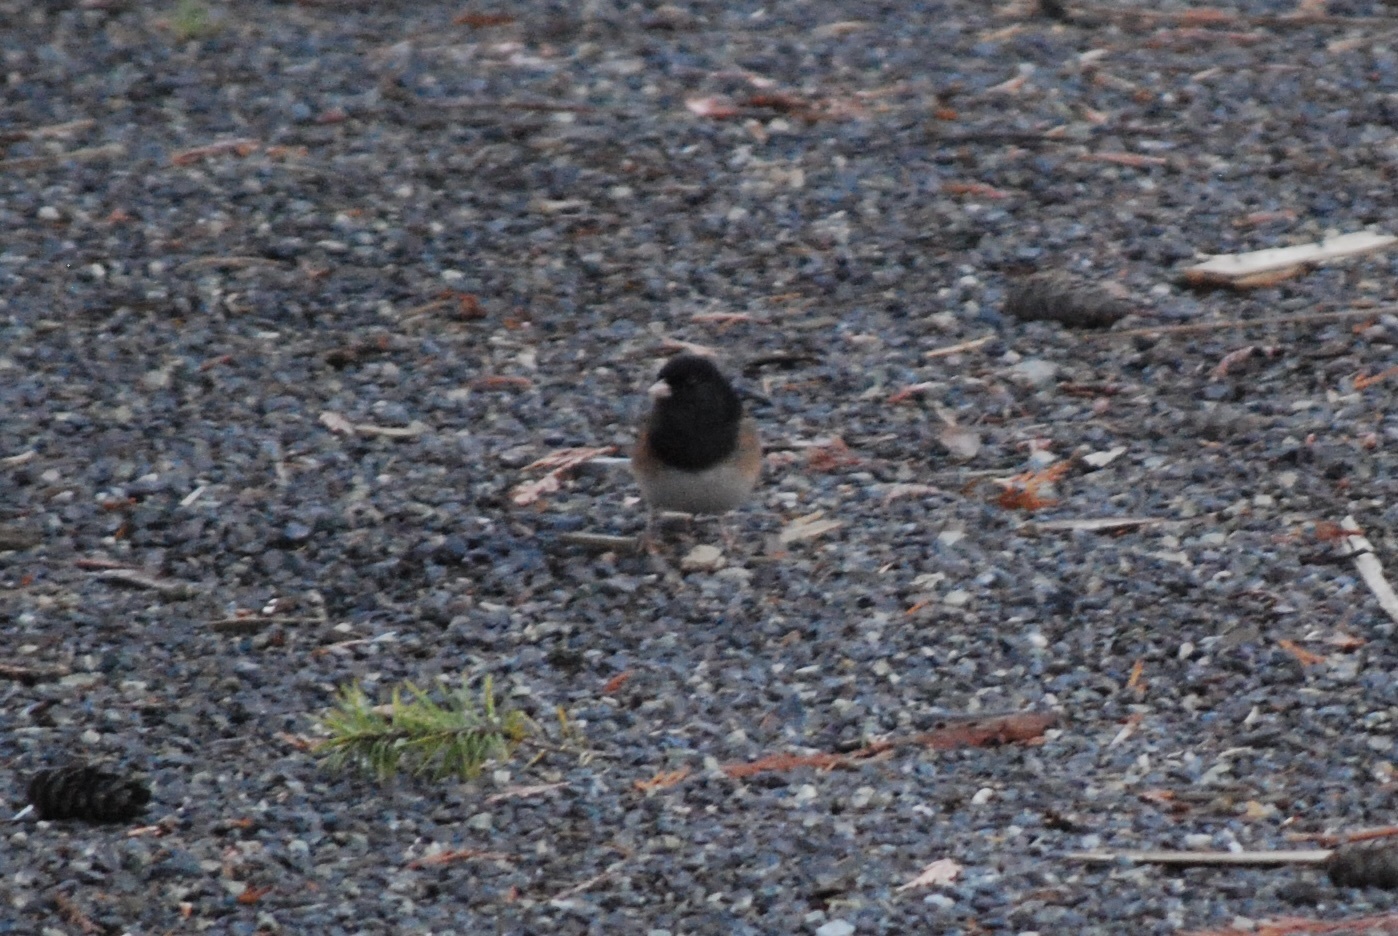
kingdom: Animalia
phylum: Chordata
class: Aves
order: Passeriformes
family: Passerellidae
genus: Junco
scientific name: Junco hyemalis
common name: Dark-eyed junco
